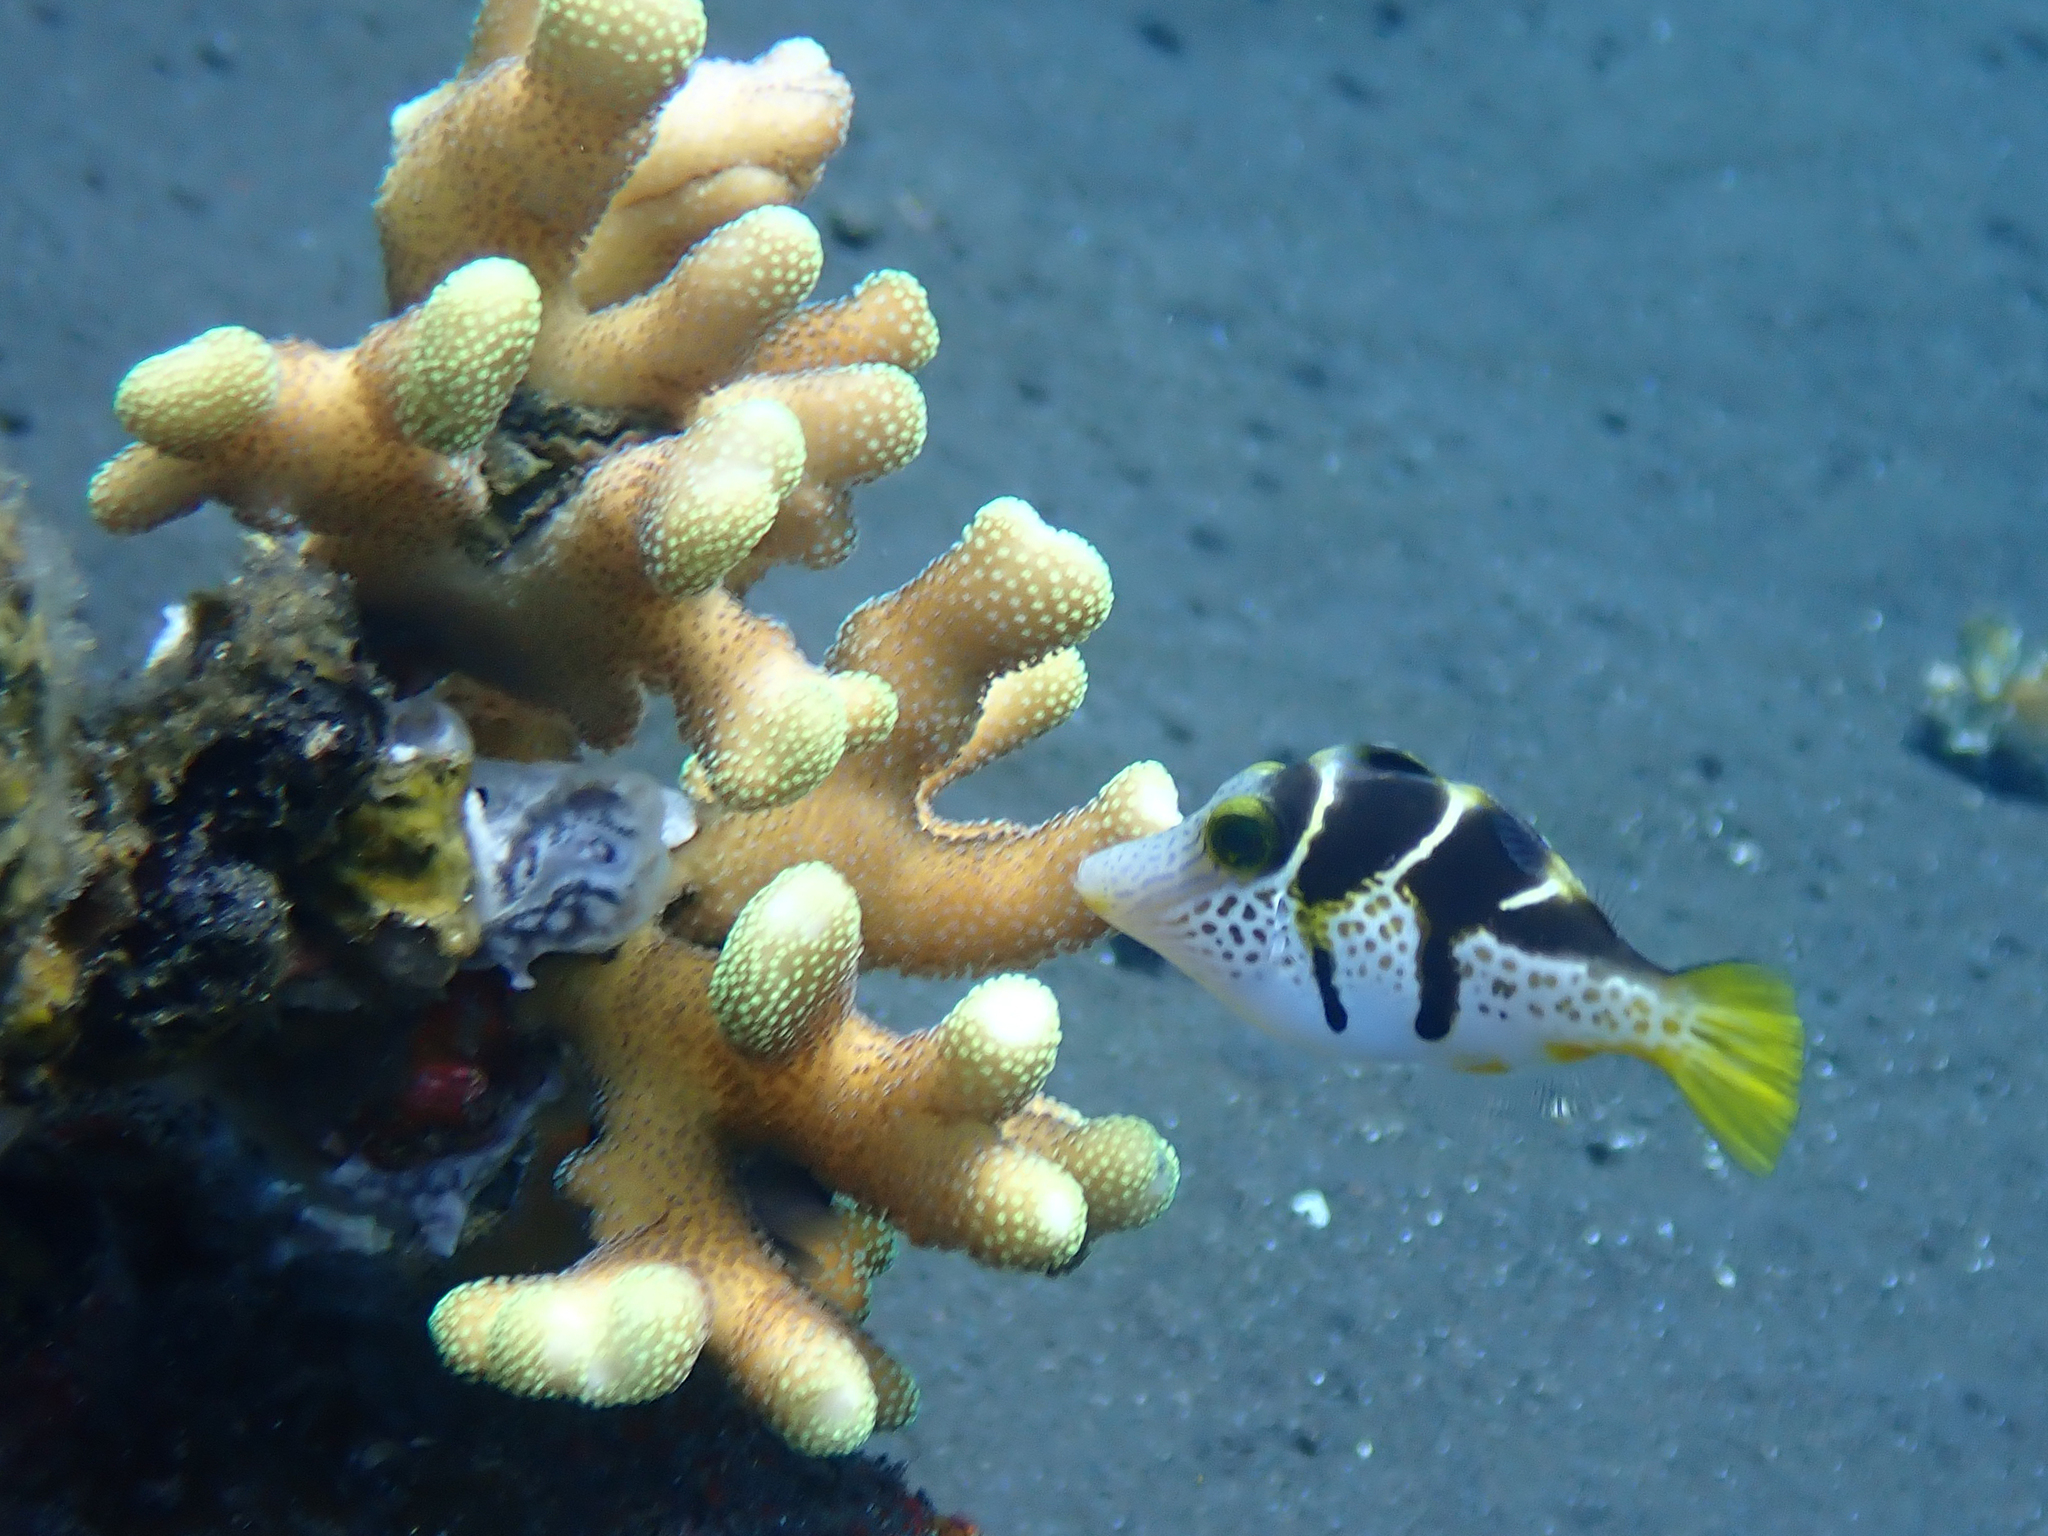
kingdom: Animalia
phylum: Chordata
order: Tetraodontiformes
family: Monacanthidae
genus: Paraluteres
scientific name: Paraluteres prionurus
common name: Black-saddled leatherjacket
